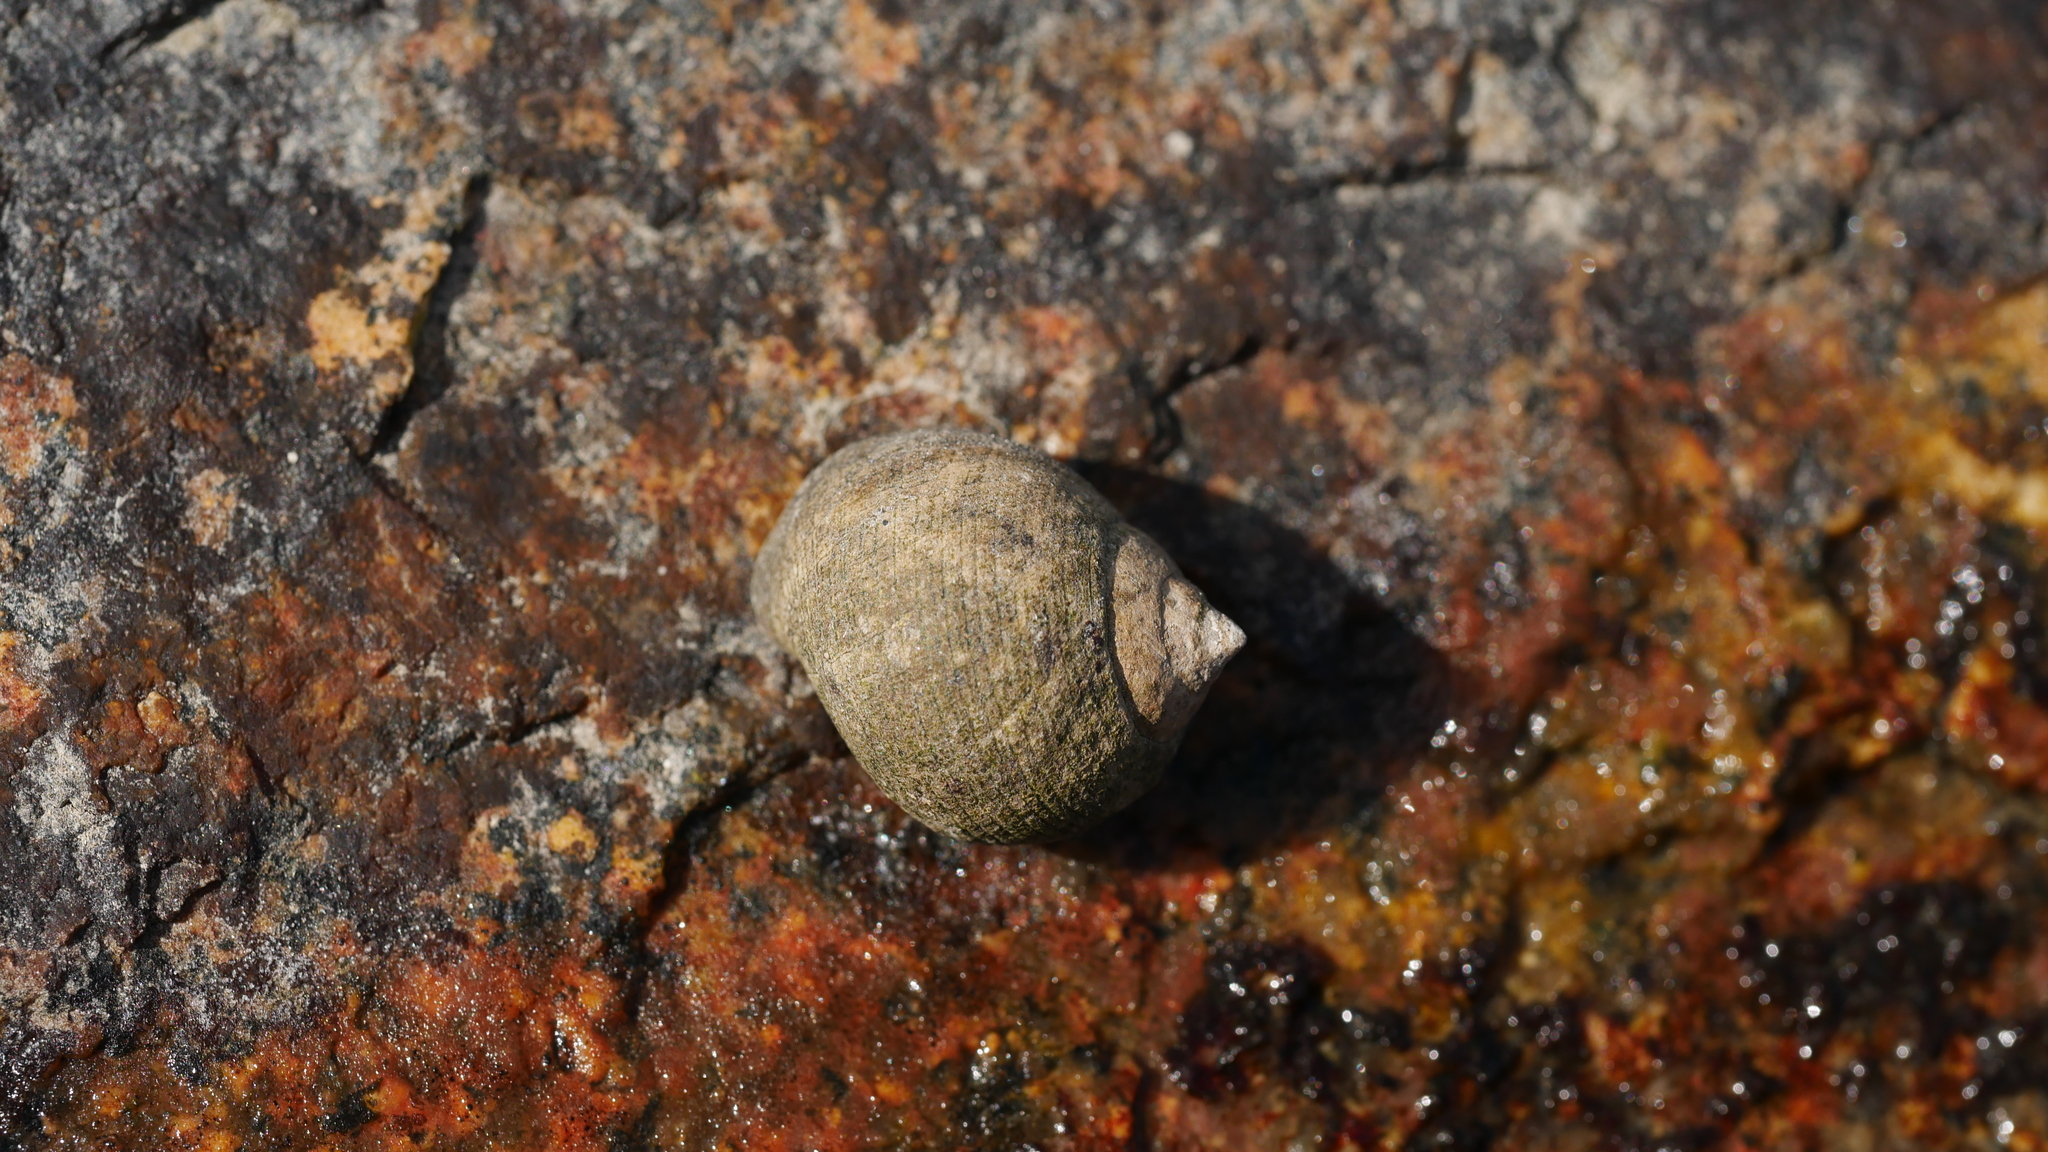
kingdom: Animalia
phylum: Mollusca
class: Gastropoda
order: Littorinimorpha
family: Littorinidae
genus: Littorina
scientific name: Littorina littorea
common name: Common periwinkle
